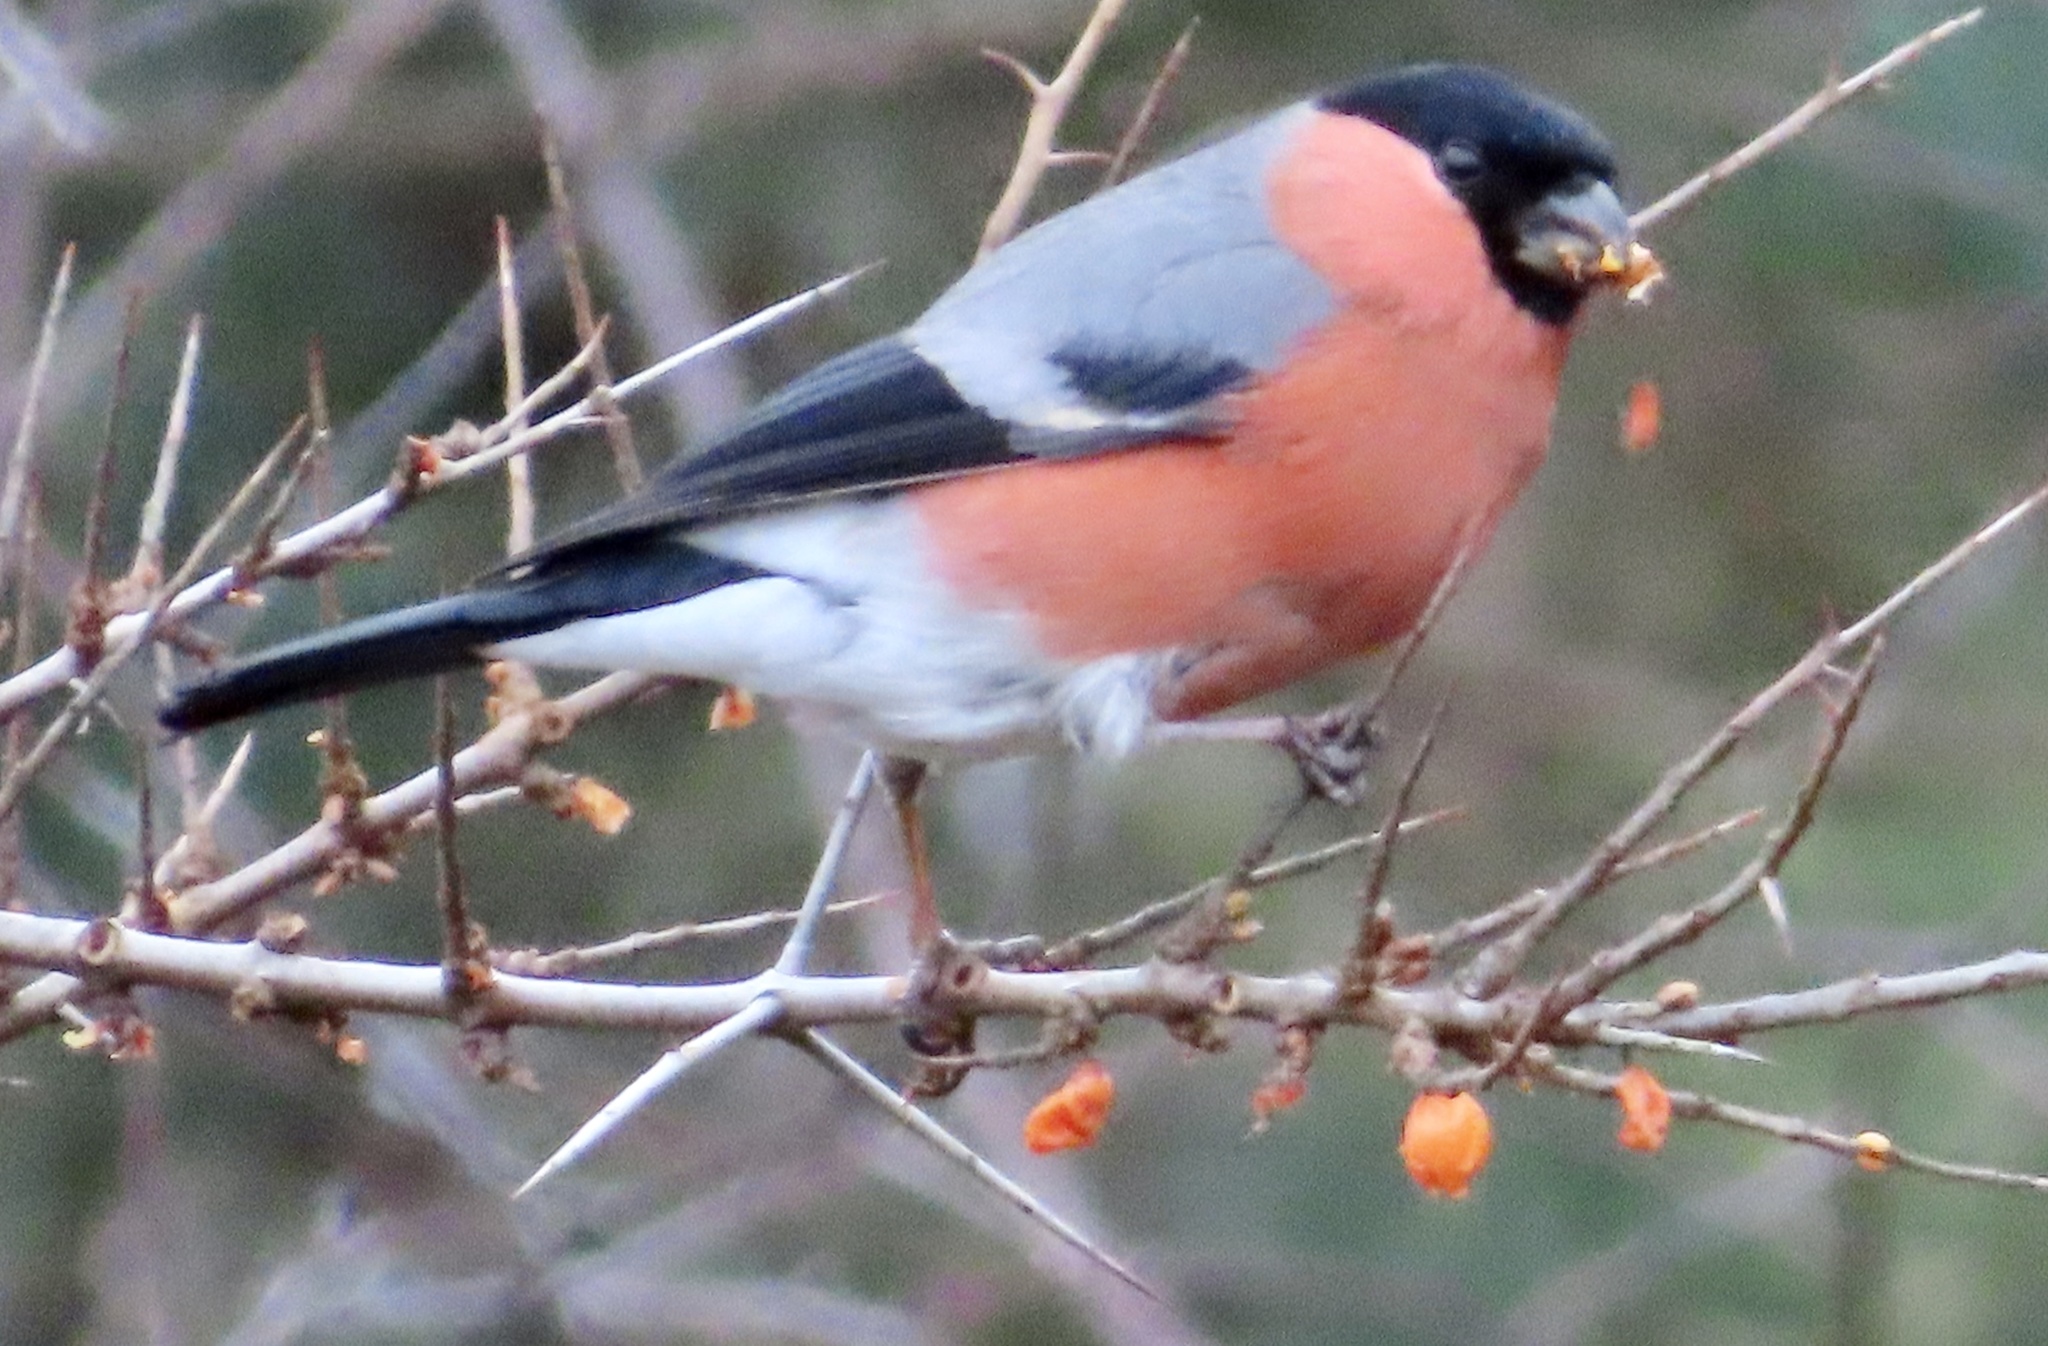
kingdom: Animalia
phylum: Chordata
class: Aves
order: Passeriformes
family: Fringillidae
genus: Pyrrhula
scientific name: Pyrrhula pyrrhula
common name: Eurasian bullfinch
